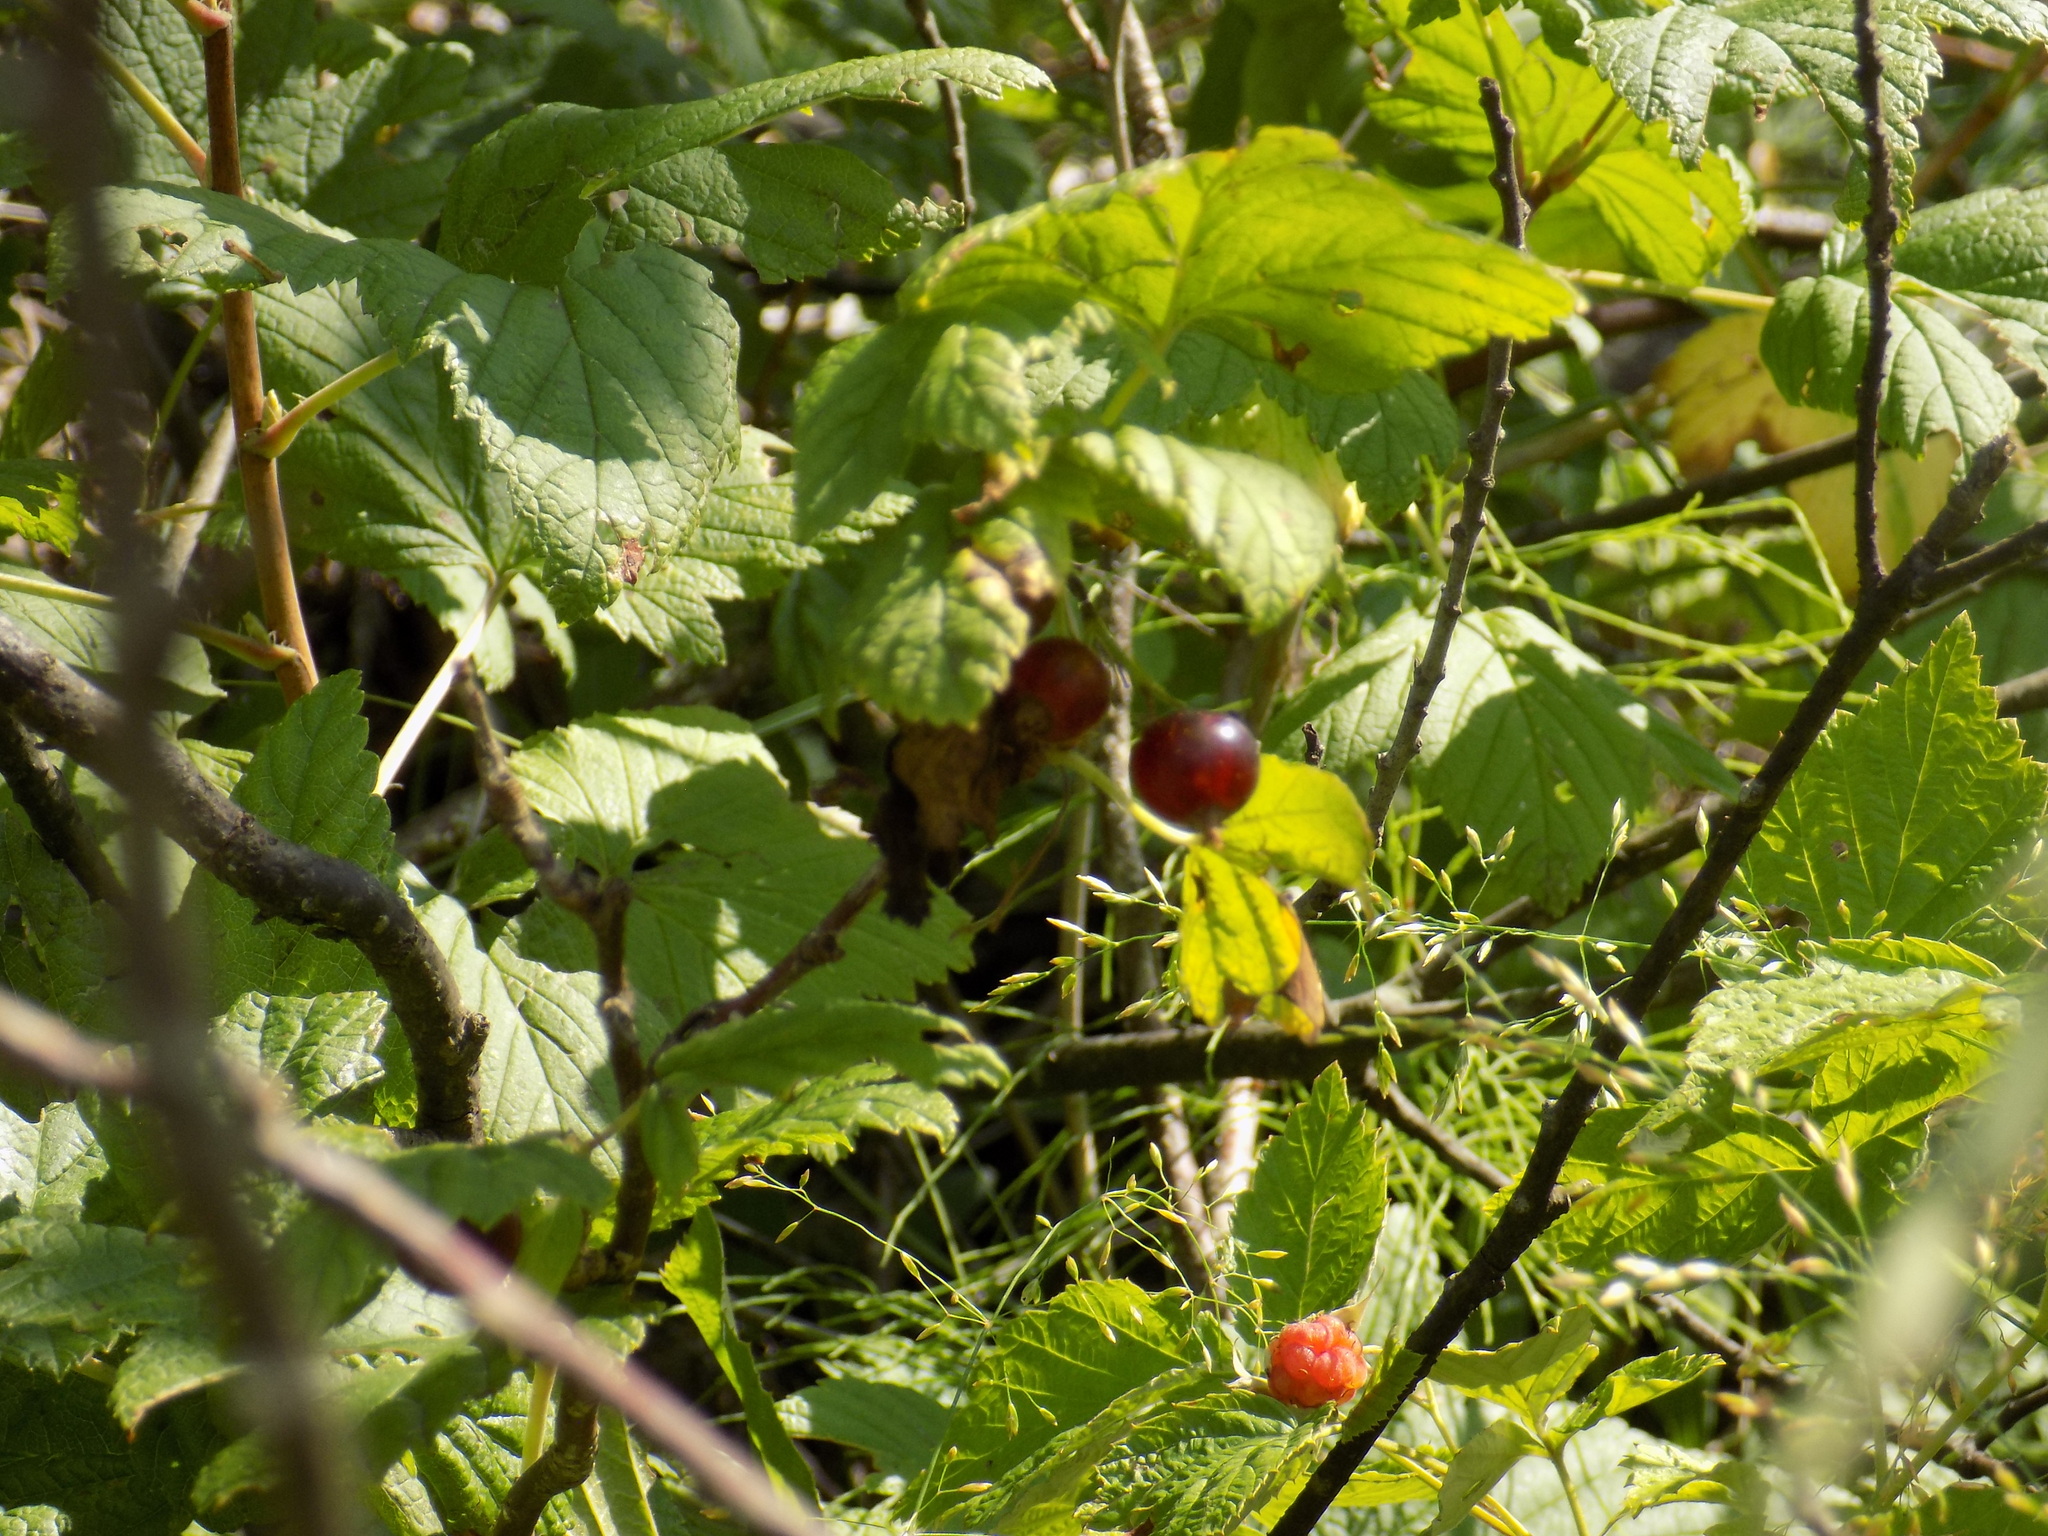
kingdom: Plantae
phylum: Tracheophyta
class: Magnoliopsida
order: Saxifragales
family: Grossulariaceae
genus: Ribes
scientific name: Ribes nigrum
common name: Black currant
